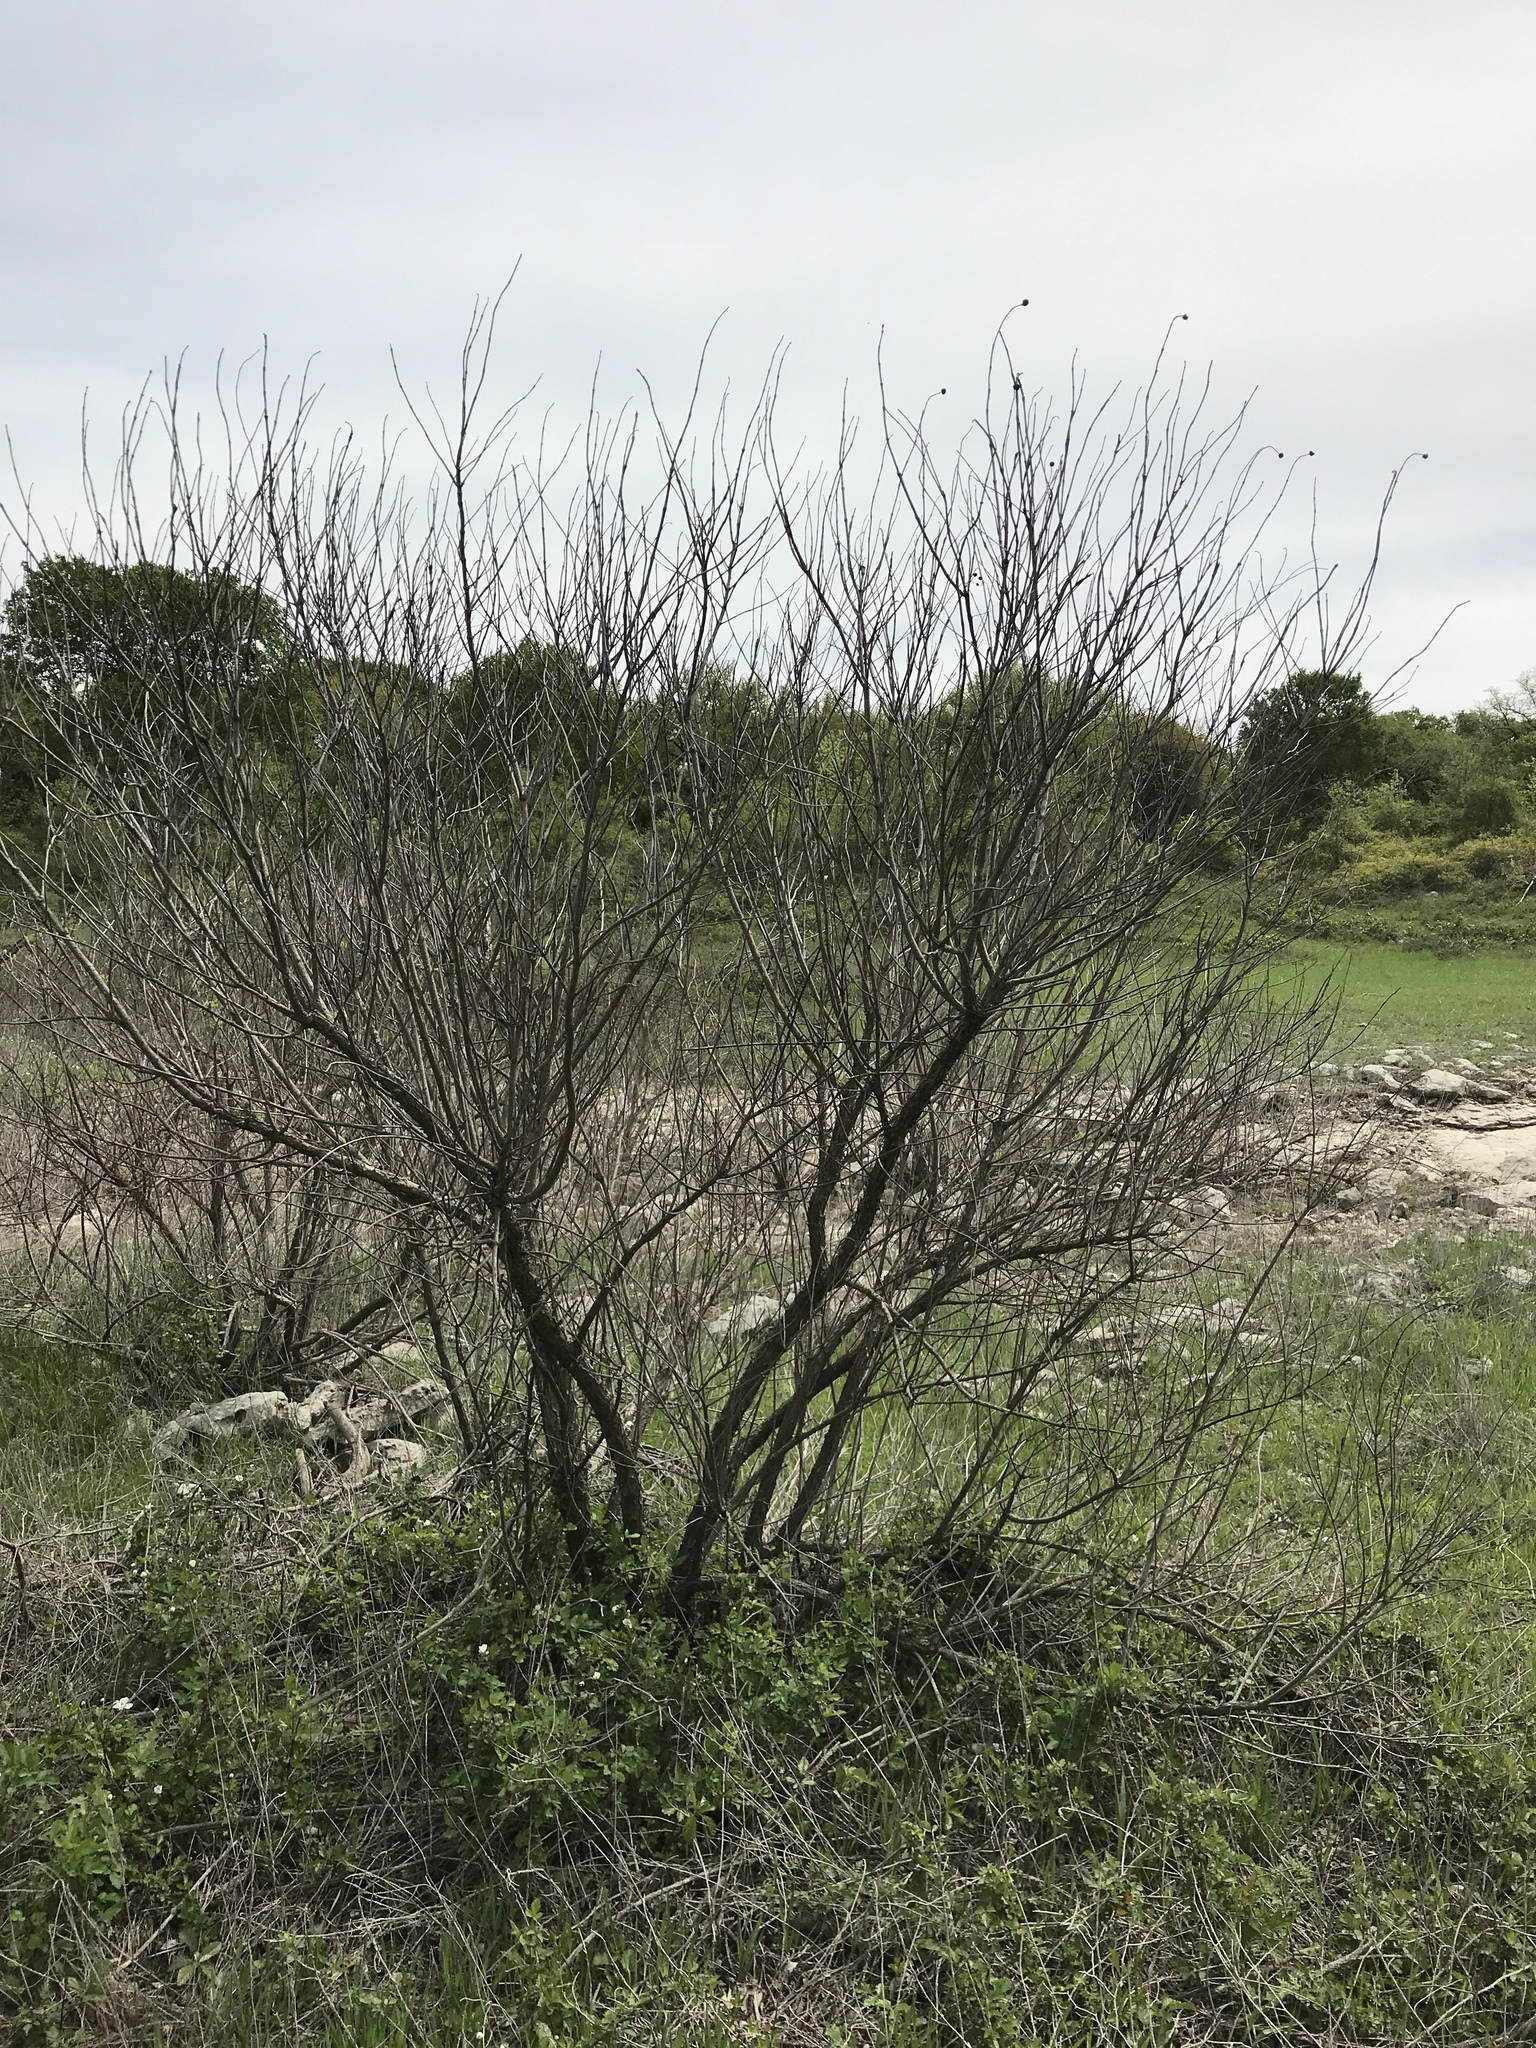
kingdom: Plantae
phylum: Tracheophyta
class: Magnoliopsida
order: Gentianales
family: Rubiaceae
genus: Cephalanthus
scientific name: Cephalanthus occidentalis
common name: Button-willow
